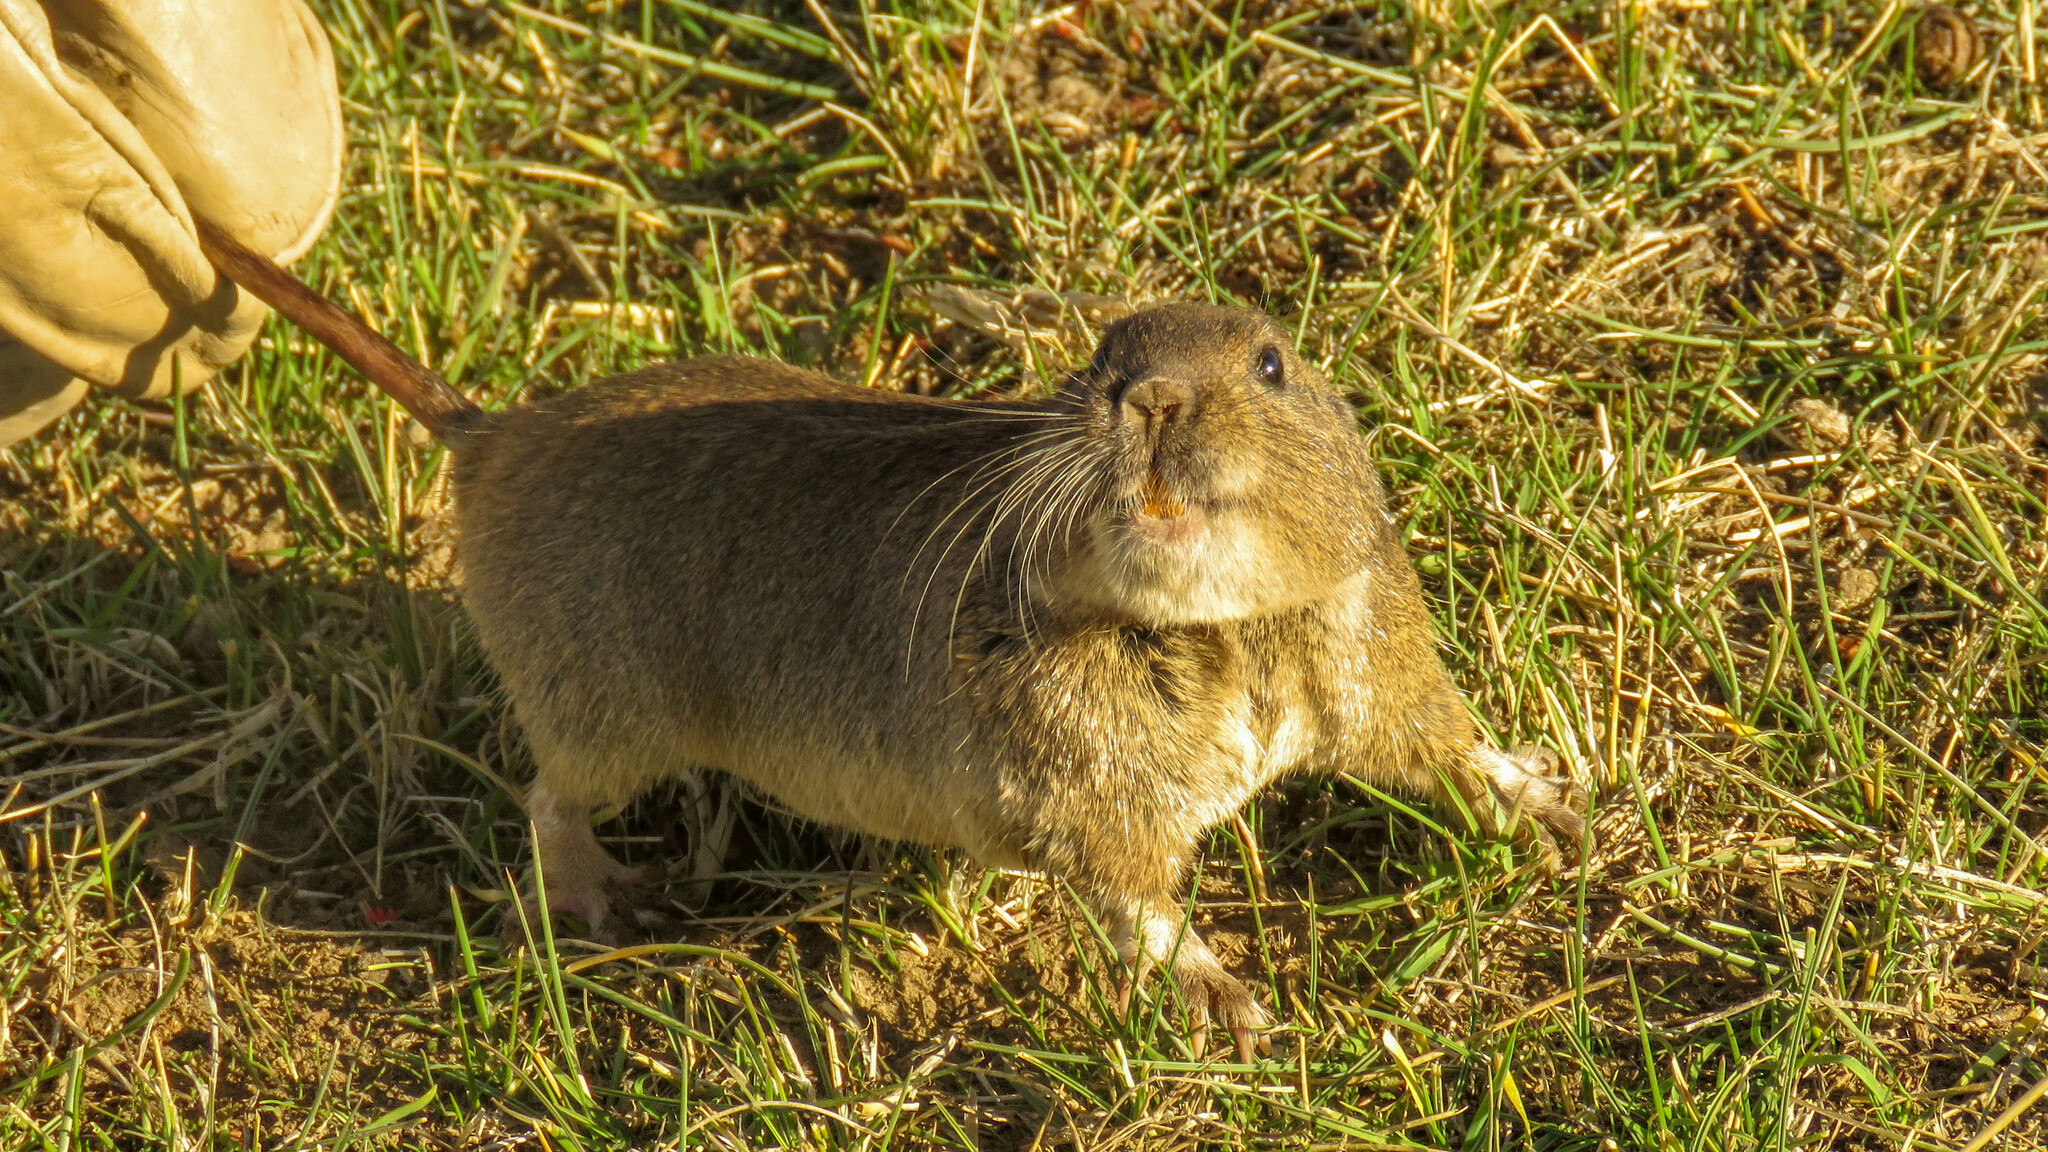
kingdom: Animalia
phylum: Chordata
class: Mammalia
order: Rodentia
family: Ctenomyidae
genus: Ctenomys
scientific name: Ctenomys haigi
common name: Haig's tuco-tuco
